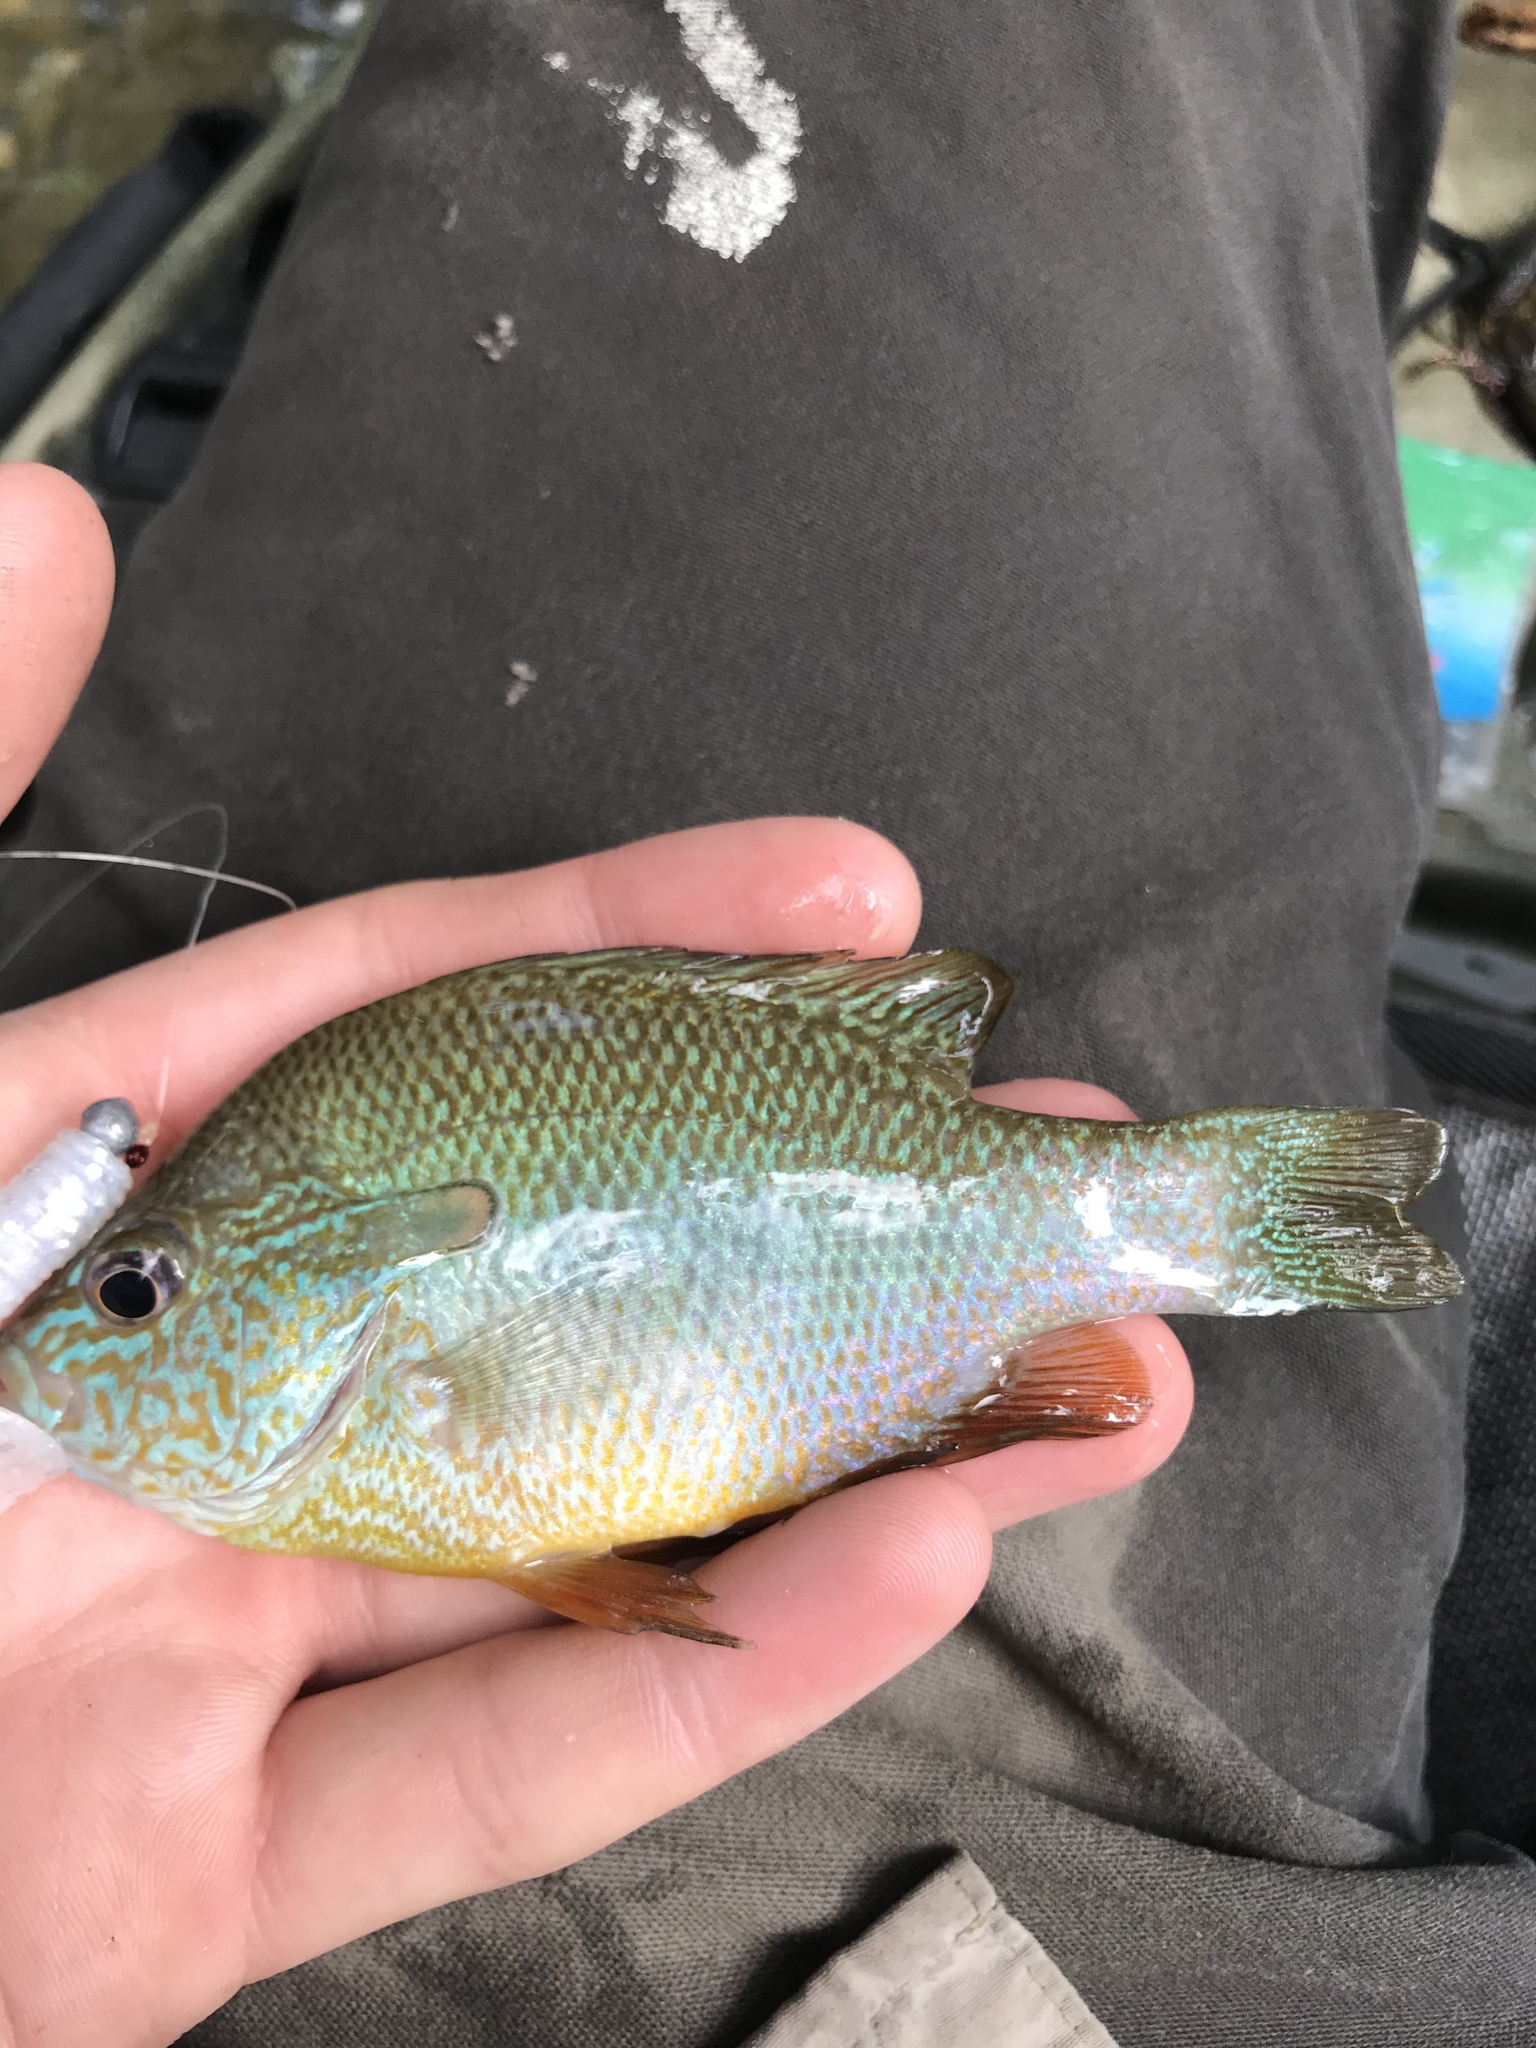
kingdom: Animalia
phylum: Chordata
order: Perciformes
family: Centrarchidae
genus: Lepomis
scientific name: Lepomis megalotis
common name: Longear sunfish
